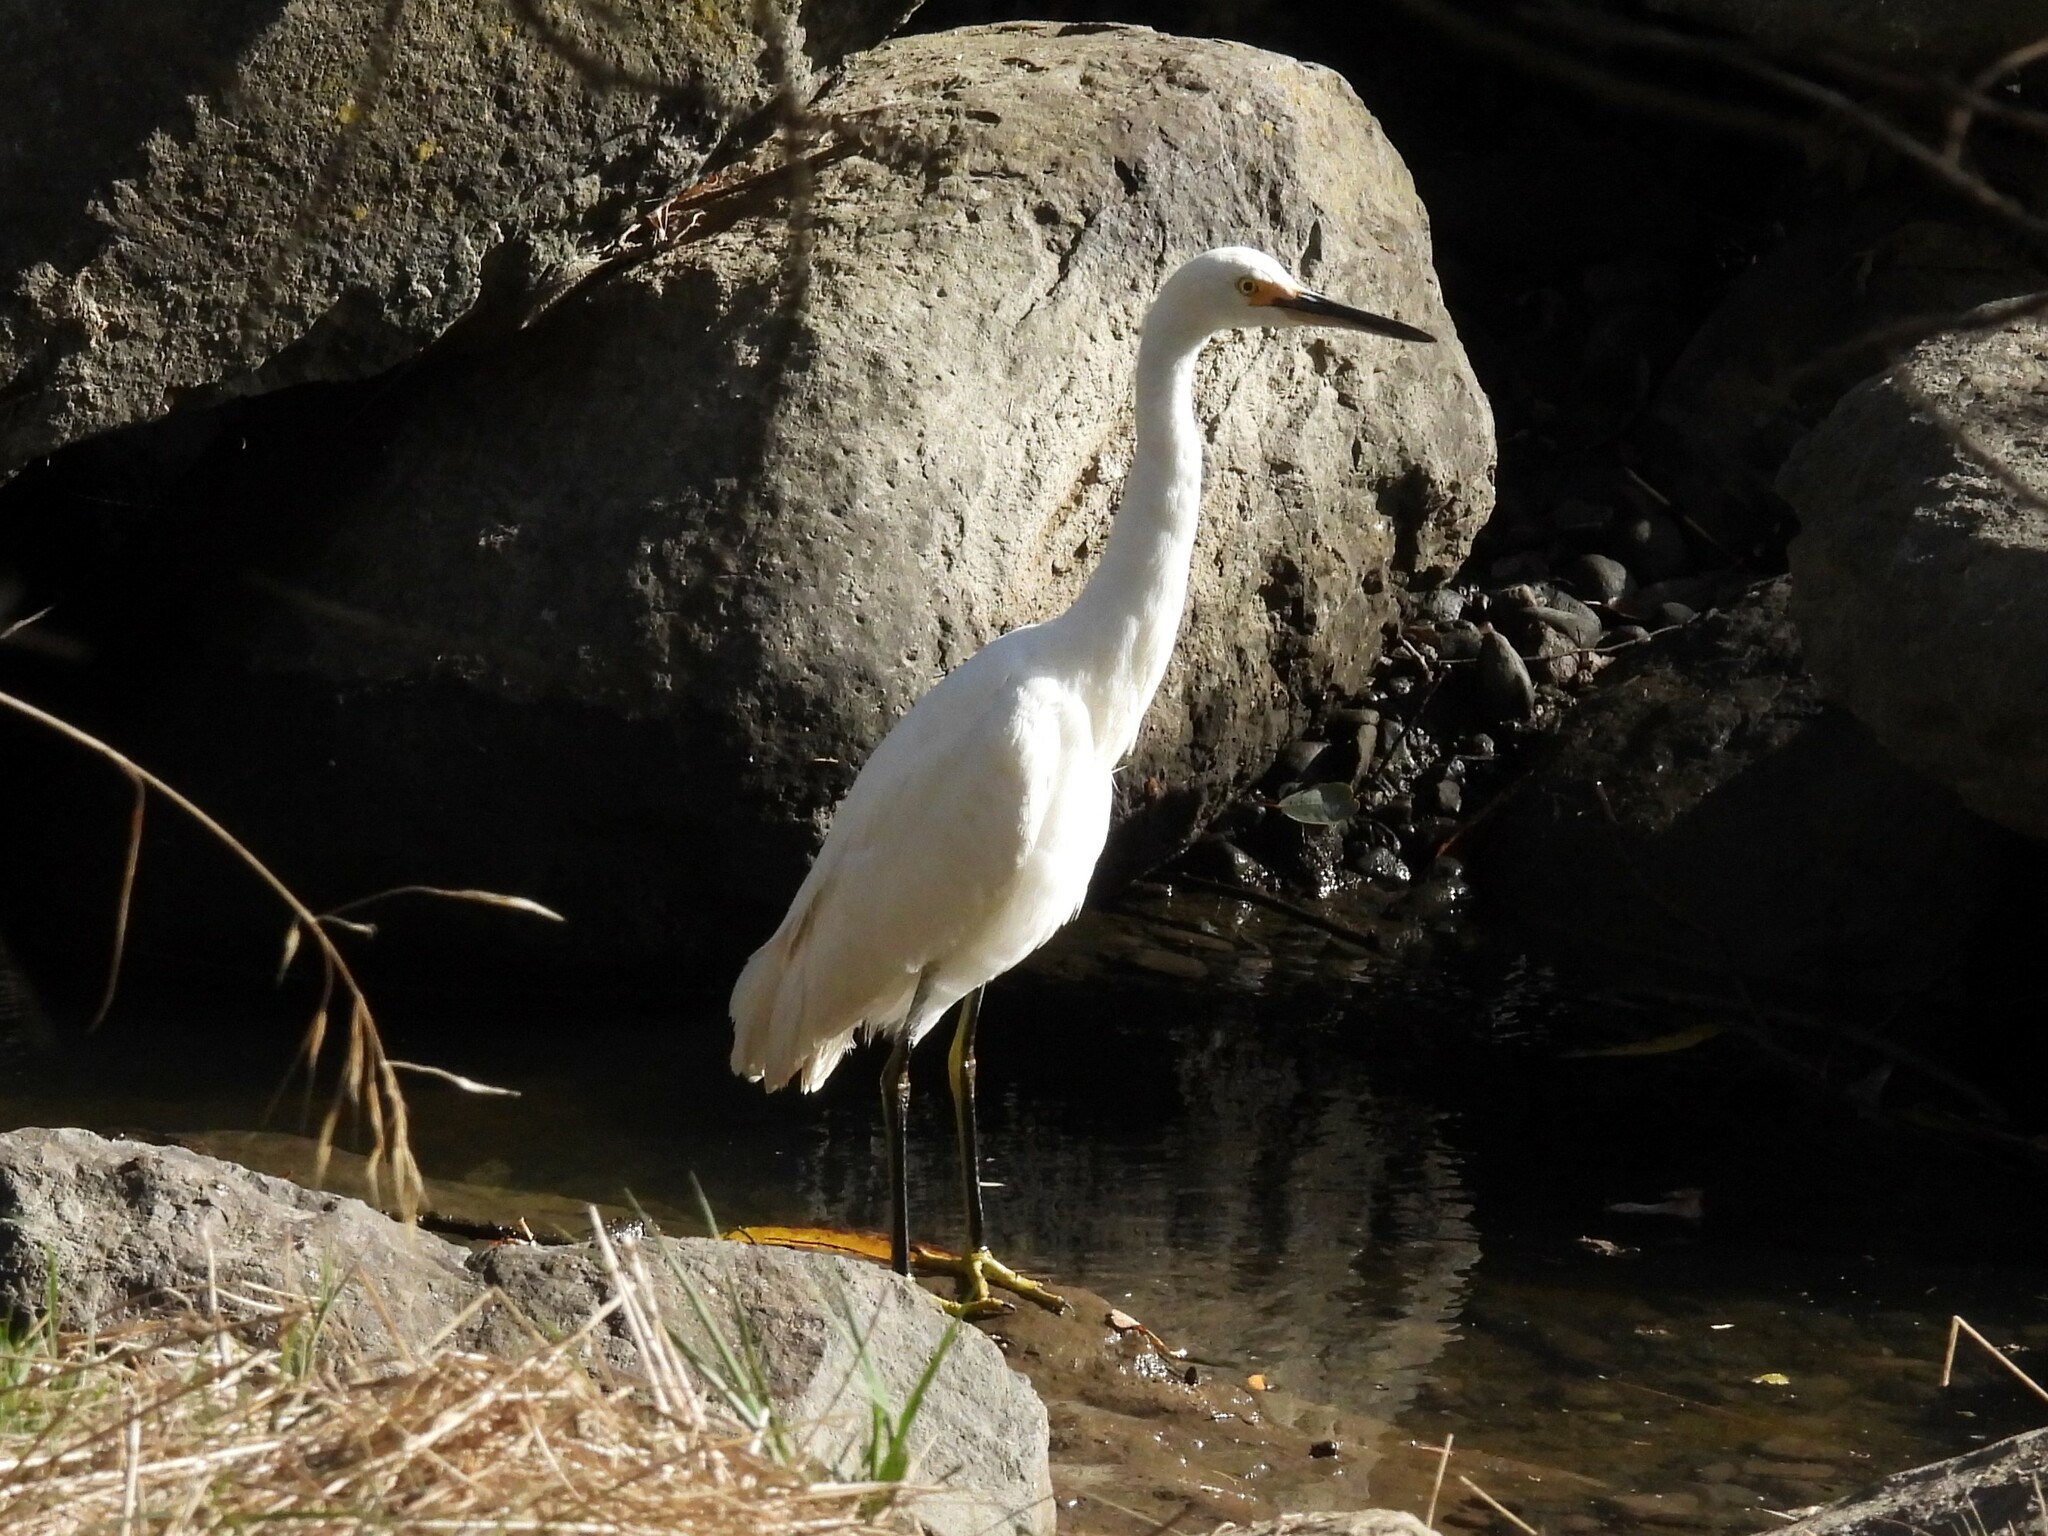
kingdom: Animalia
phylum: Chordata
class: Aves
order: Pelecaniformes
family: Ardeidae
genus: Egretta
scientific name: Egretta thula
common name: Snowy egret
